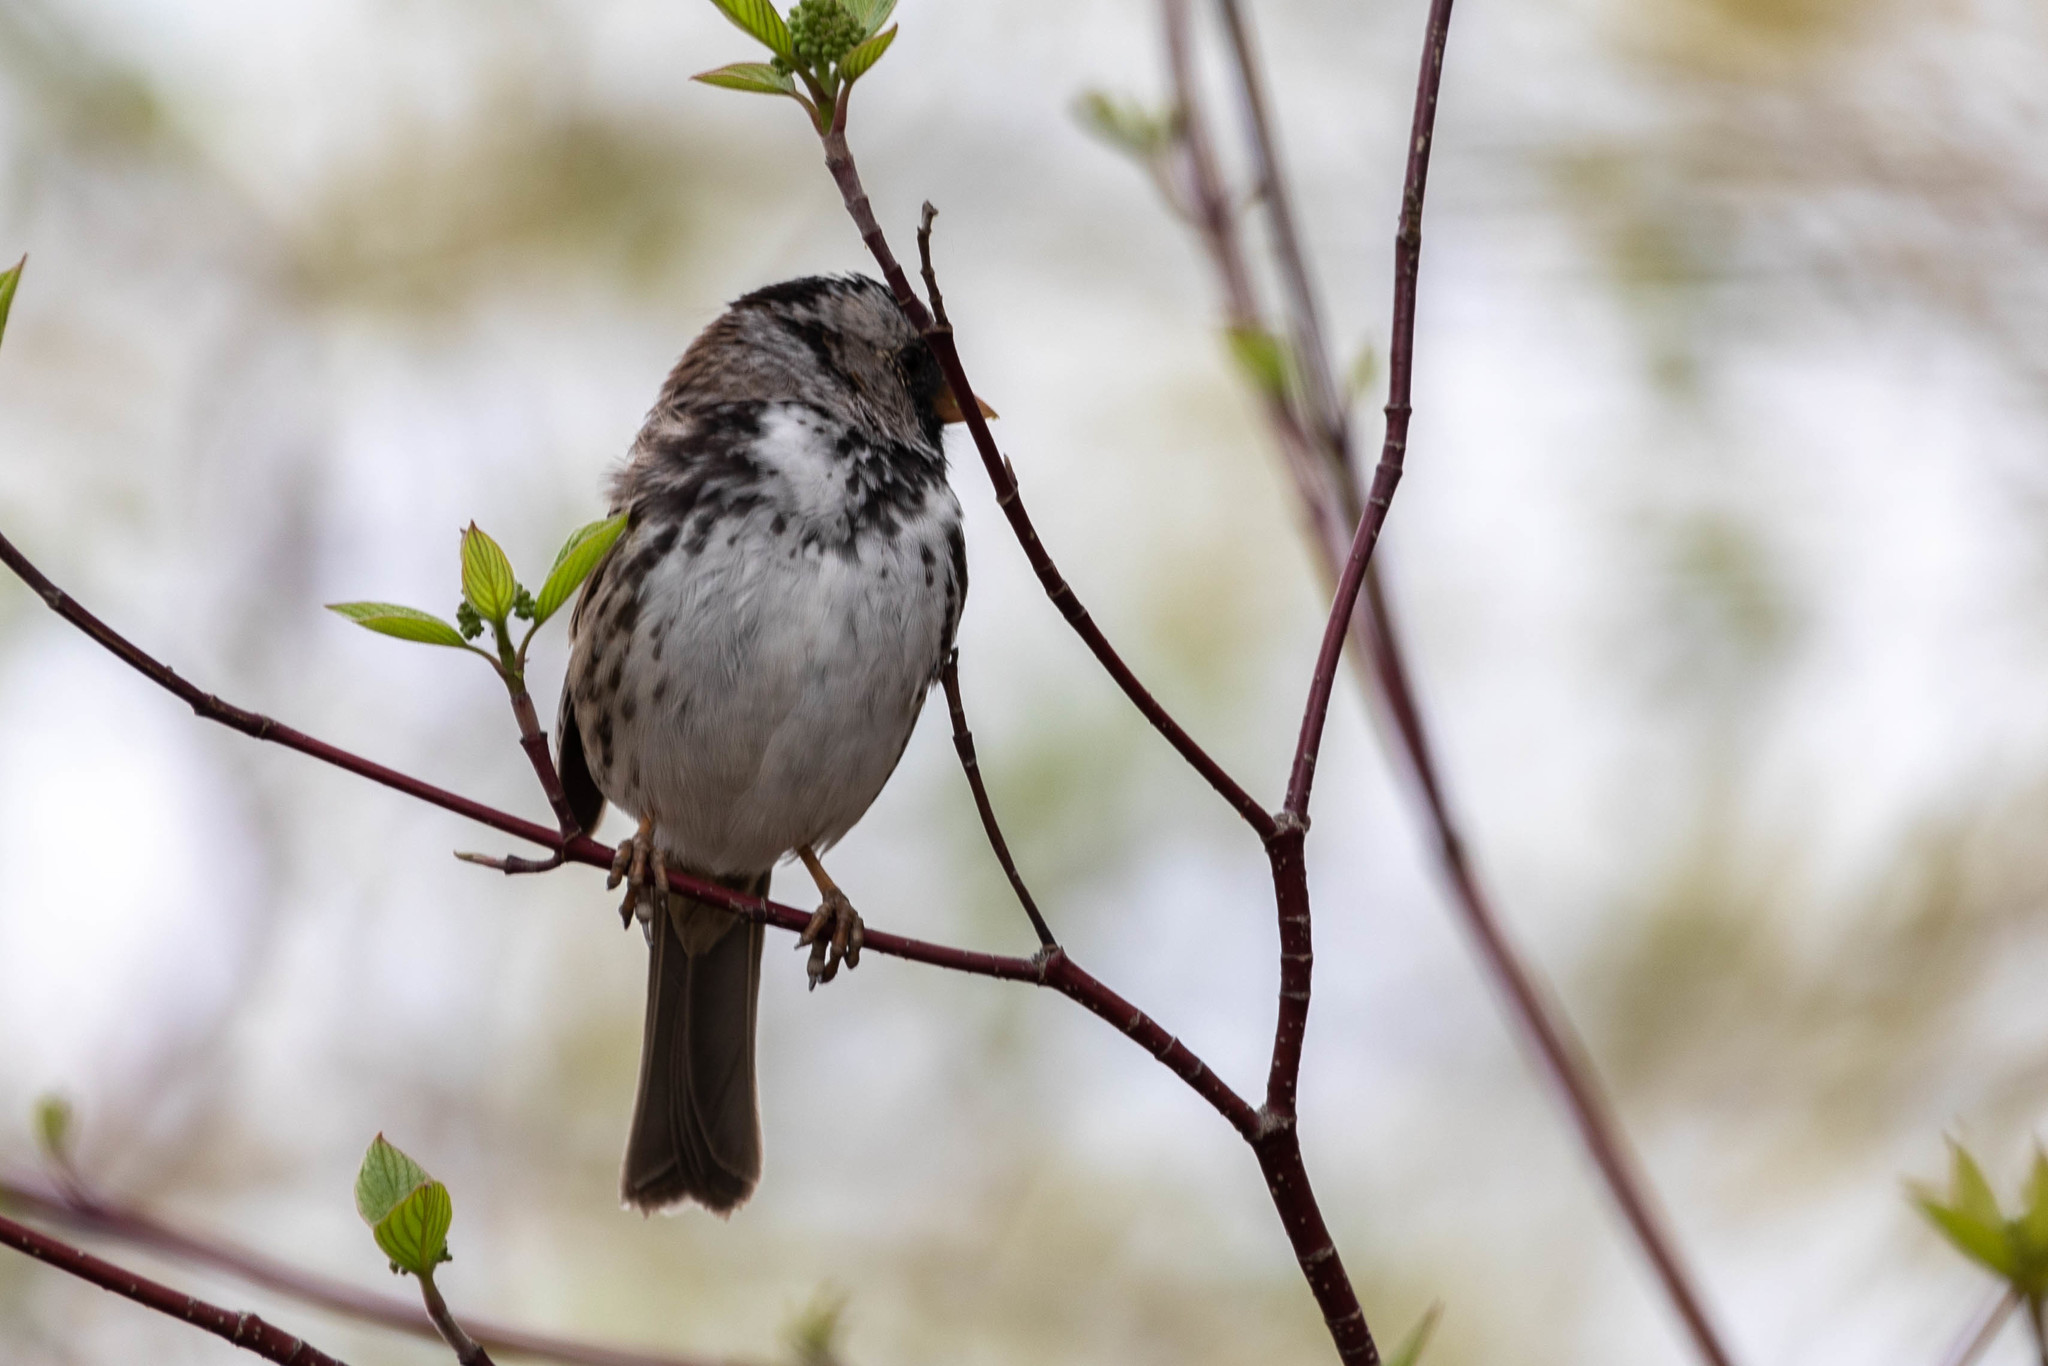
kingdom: Animalia
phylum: Chordata
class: Aves
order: Passeriformes
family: Passerellidae
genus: Zonotrichia
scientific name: Zonotrichia querula
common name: Harris's sparrow
